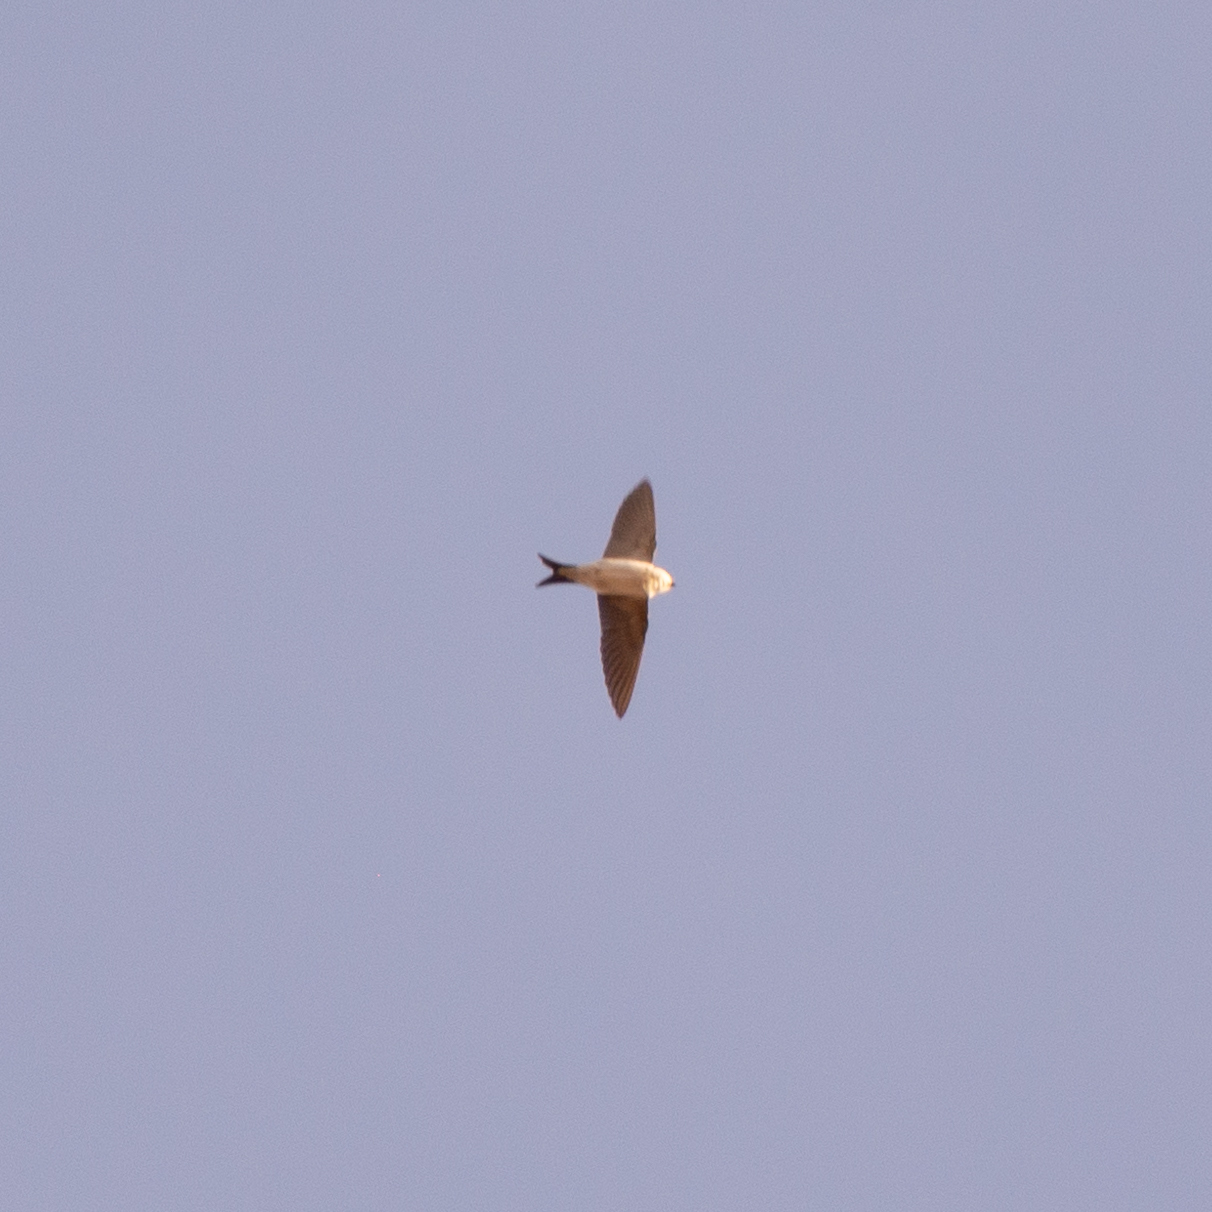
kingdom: Animalia
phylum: Chordata
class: Aves
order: Passeriformes
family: Hirundinidae
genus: Delichon
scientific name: Delichon urbicum
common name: Common house martin
